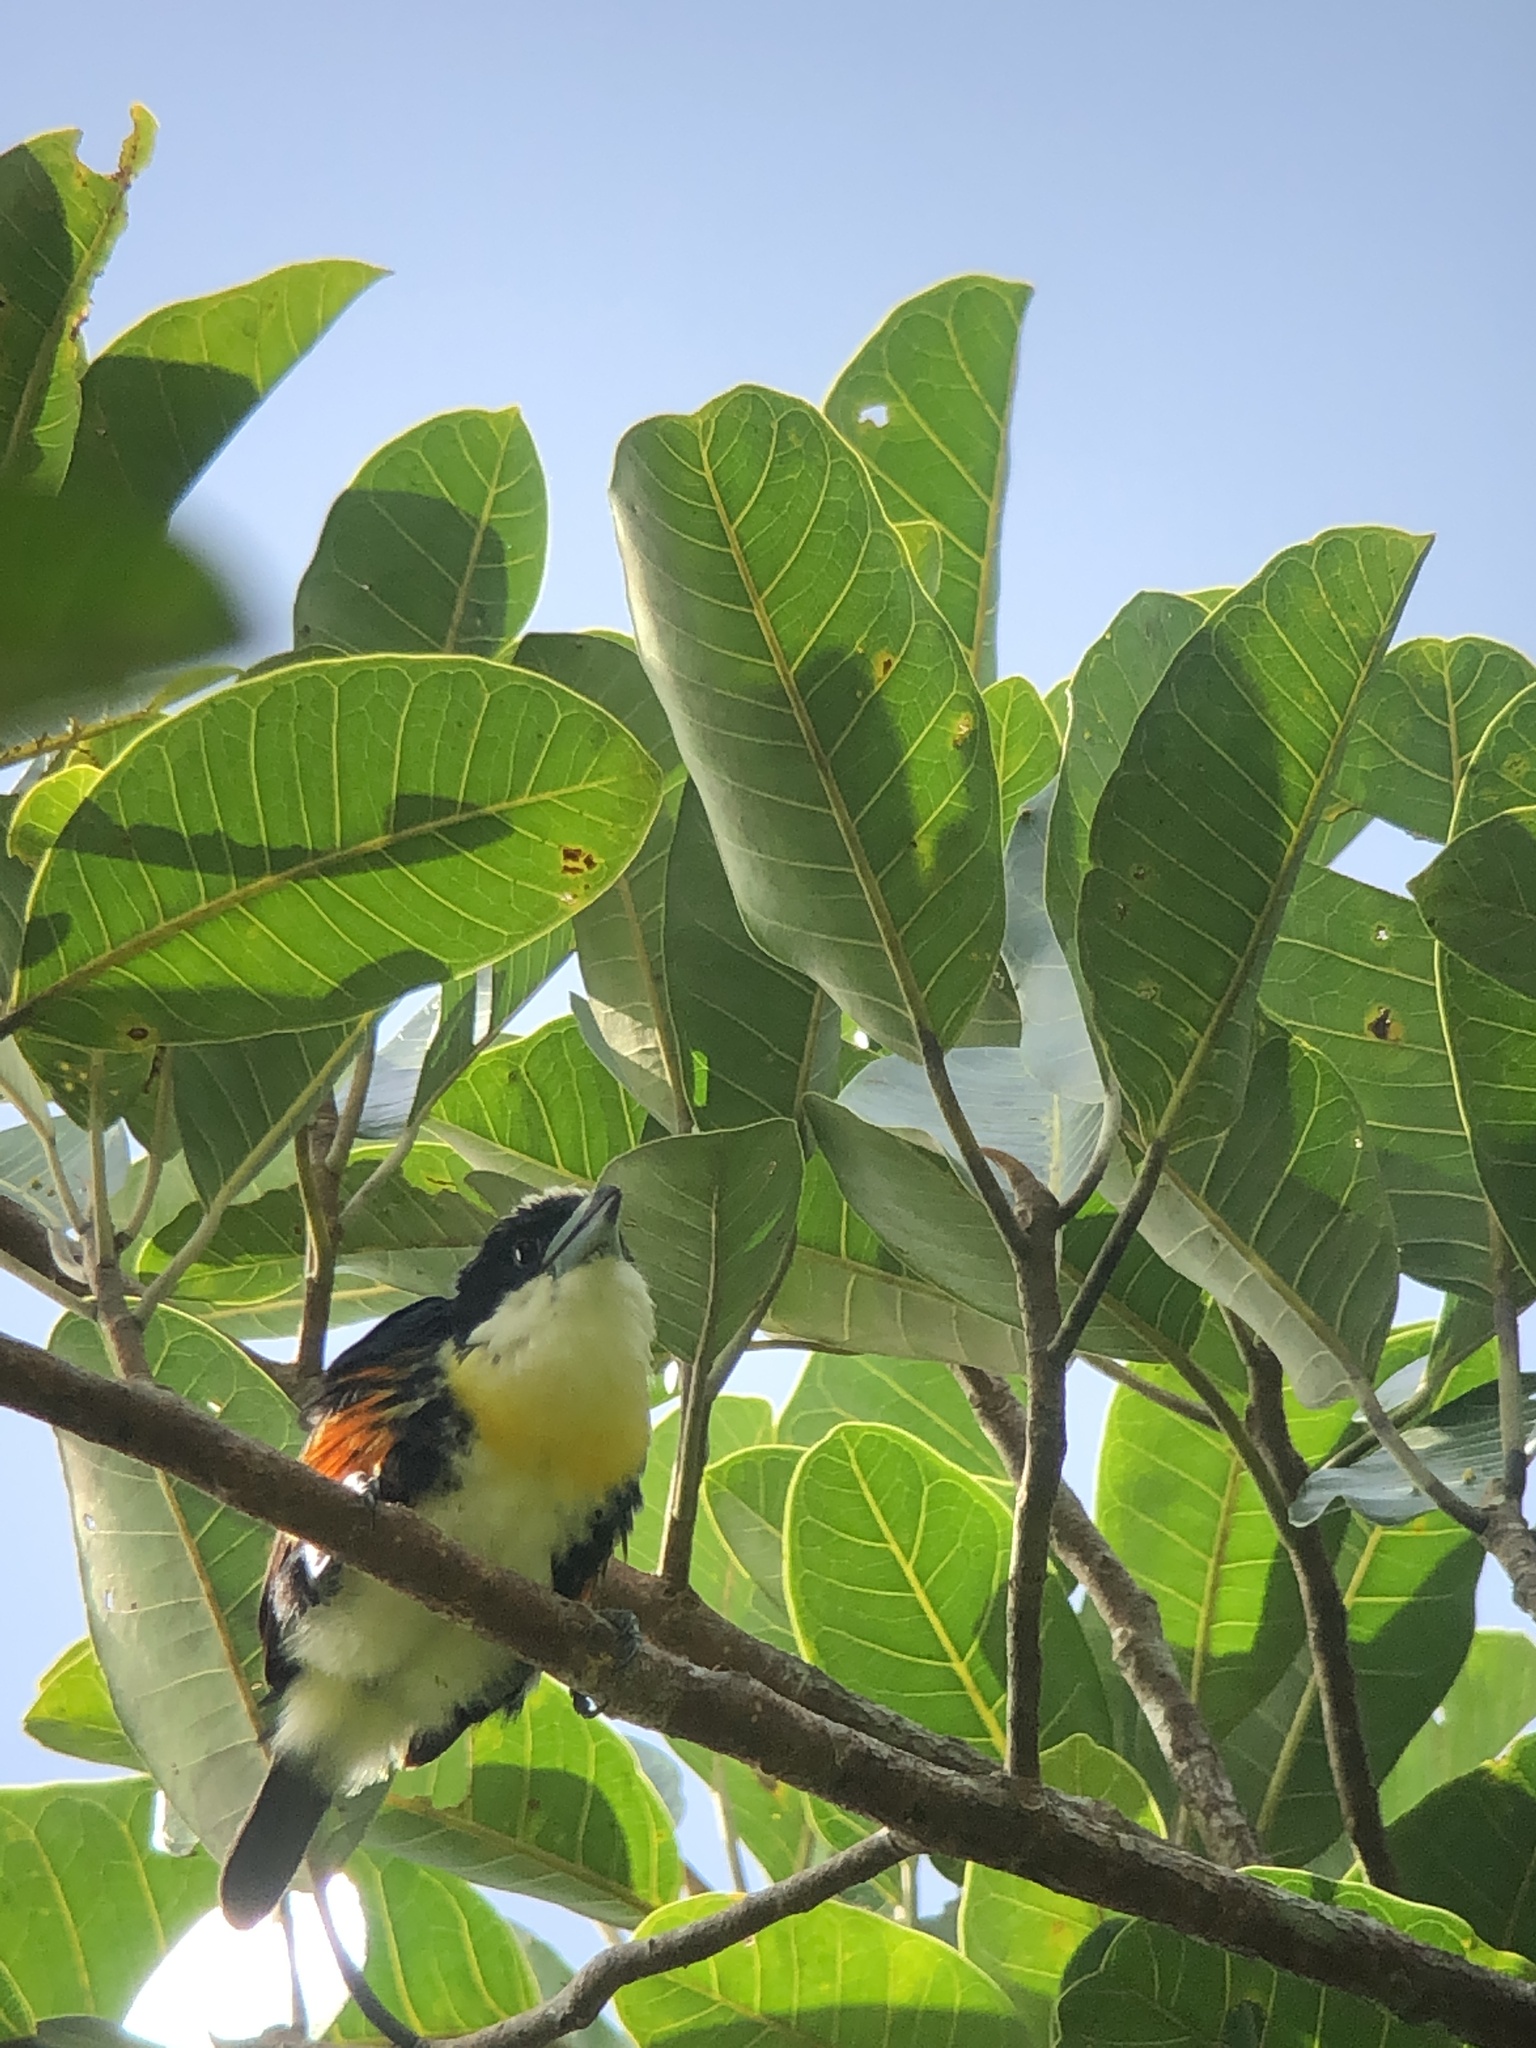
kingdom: Animalia
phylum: Chordata
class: Aves
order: Piciformes
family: Capitonidae
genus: Capito
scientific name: Capito maculicoronatus
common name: Spot-crowned barbet
